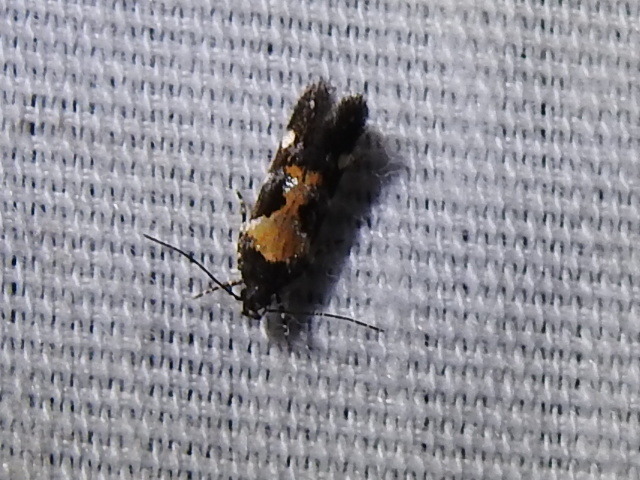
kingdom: Animalia
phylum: Arthropoda
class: Insecta
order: Lepidoptera
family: Gelechiidae
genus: Stegasta
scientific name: Stegasta bosqueella
